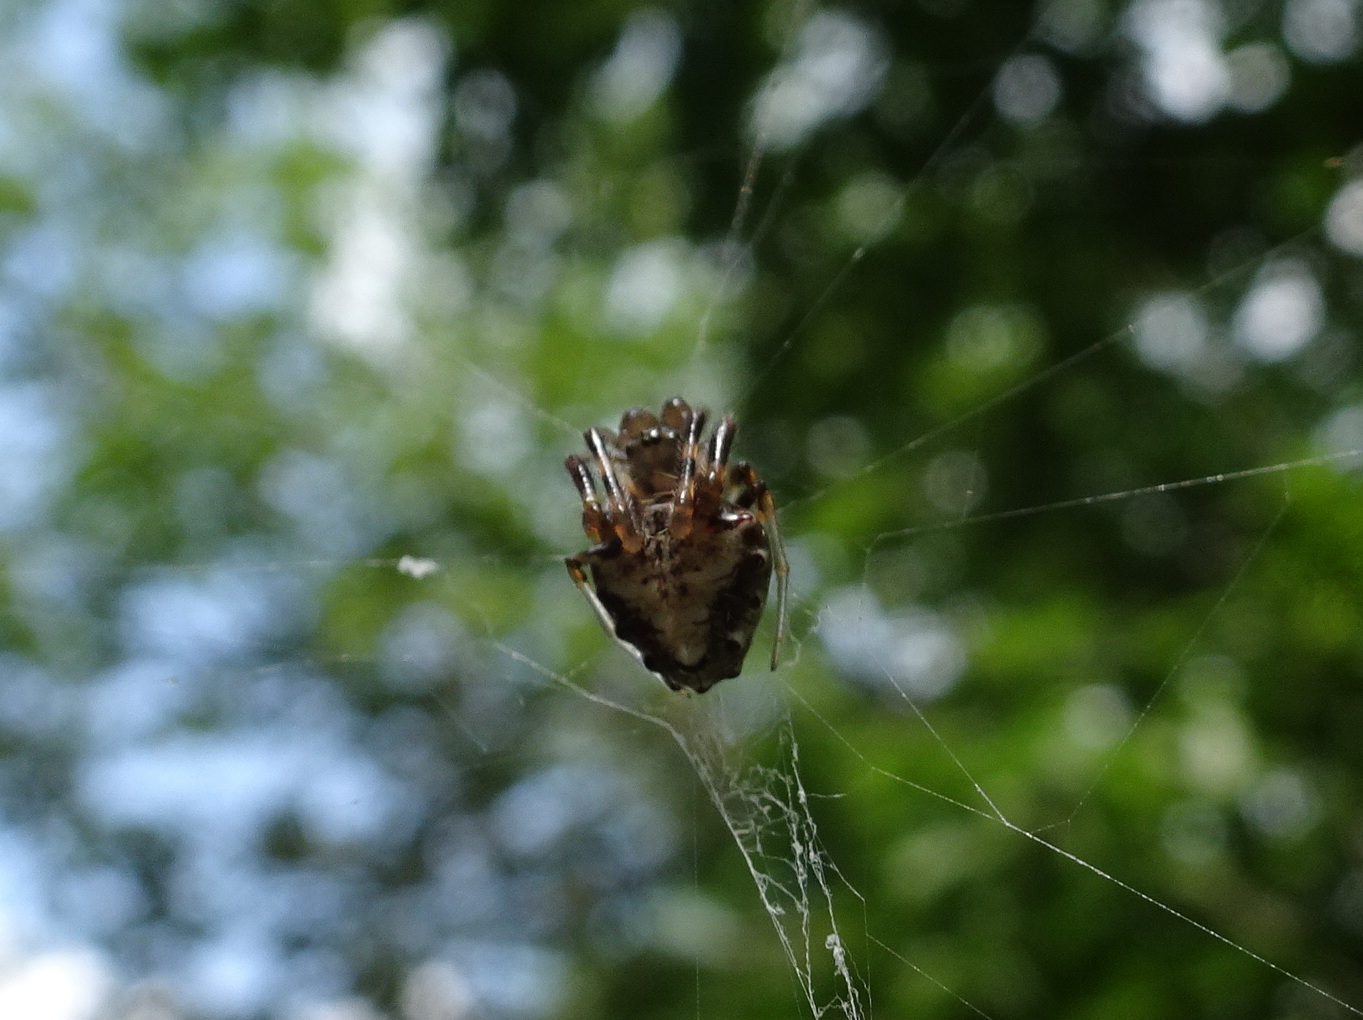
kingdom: Animalia
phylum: Arthropoda
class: Arachnida
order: Araneae
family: Araneidae
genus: Verrucosa
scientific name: Verrucosa arenata
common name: Orb weavers
